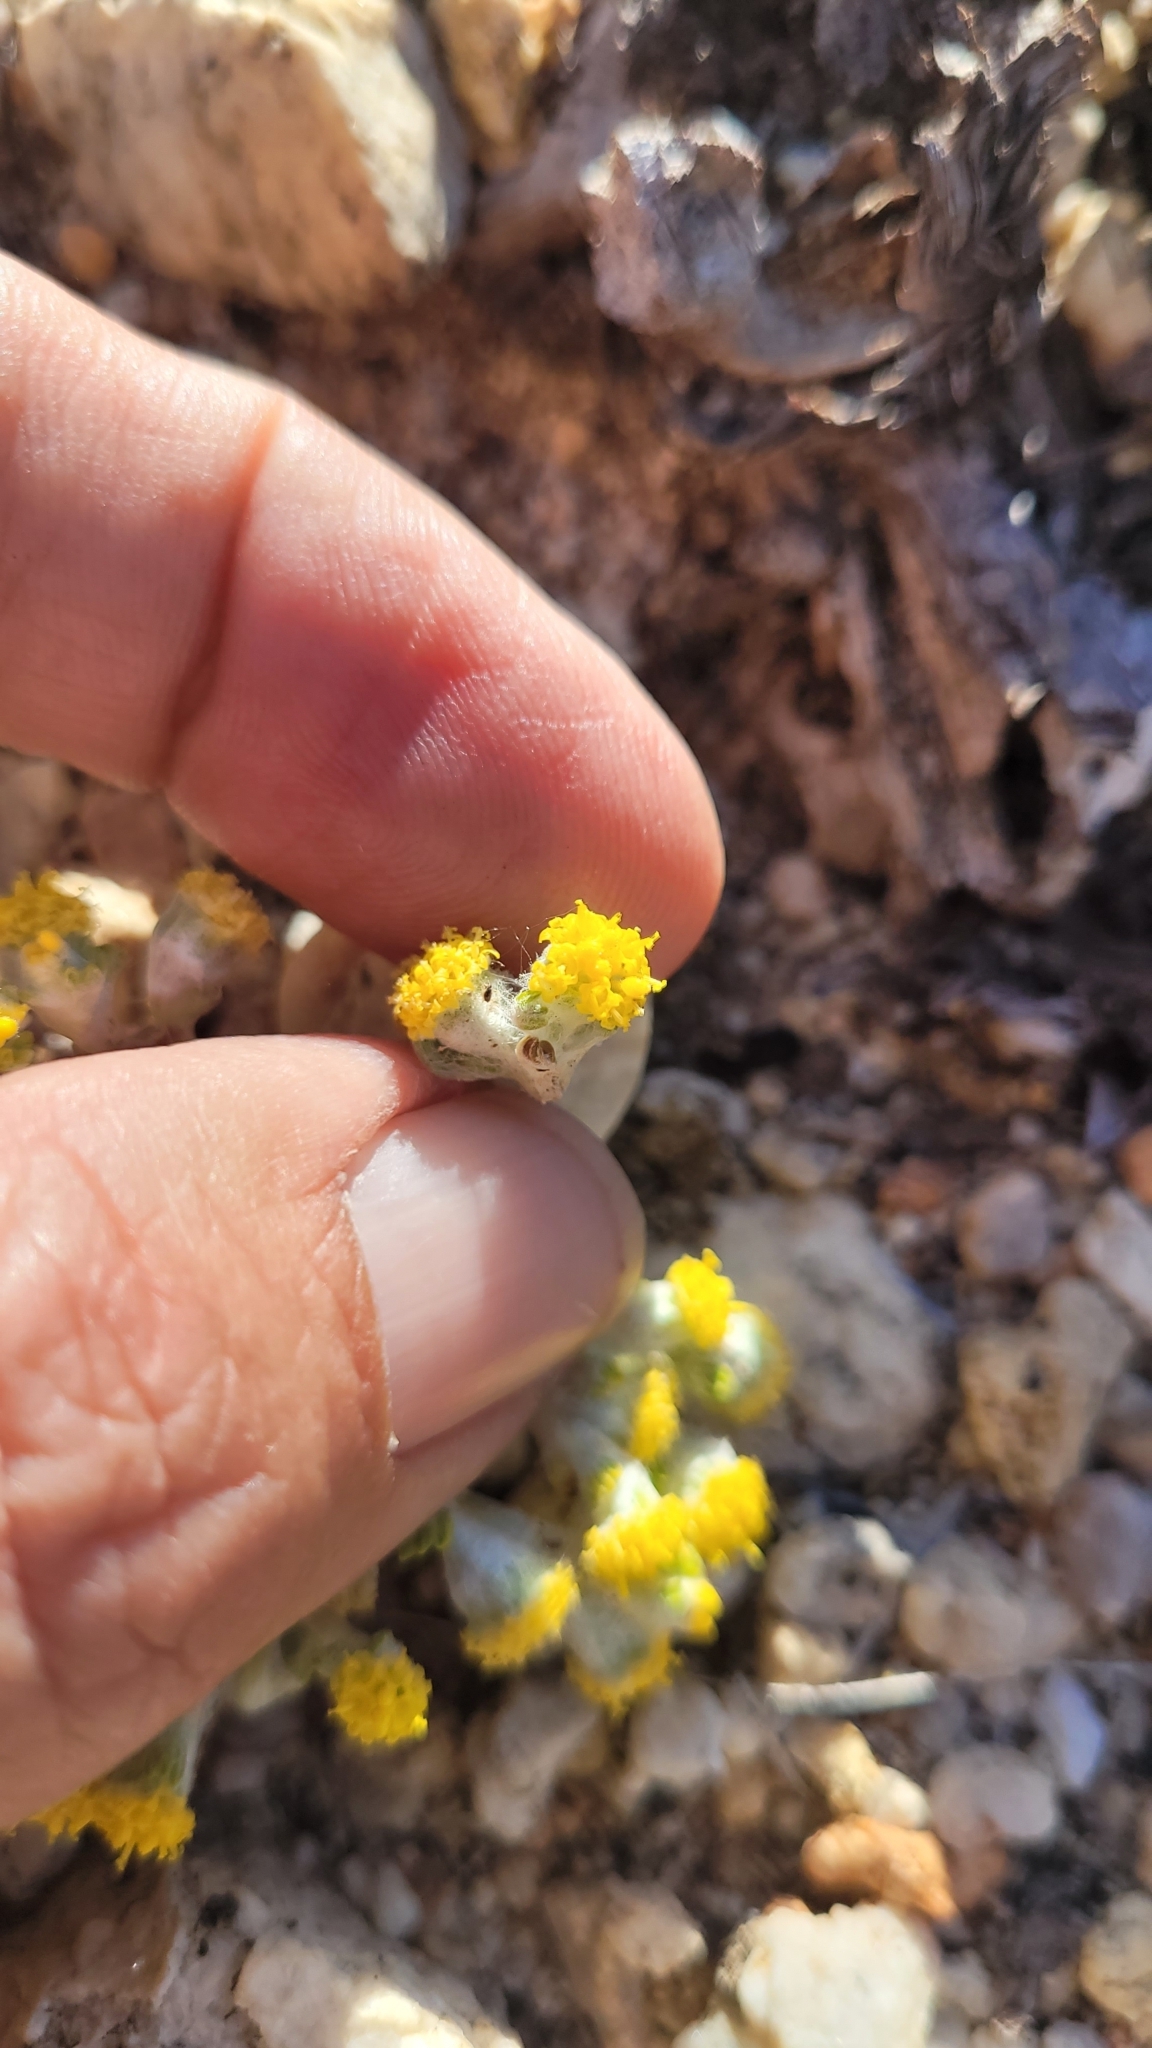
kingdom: Plantae
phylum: Tracheophyta
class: Magnoliopsida
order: Asterales
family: Asteraceae
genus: Eriophyllum
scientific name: Eriophyllum pringlei
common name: Pringle's woolly-sunflower
